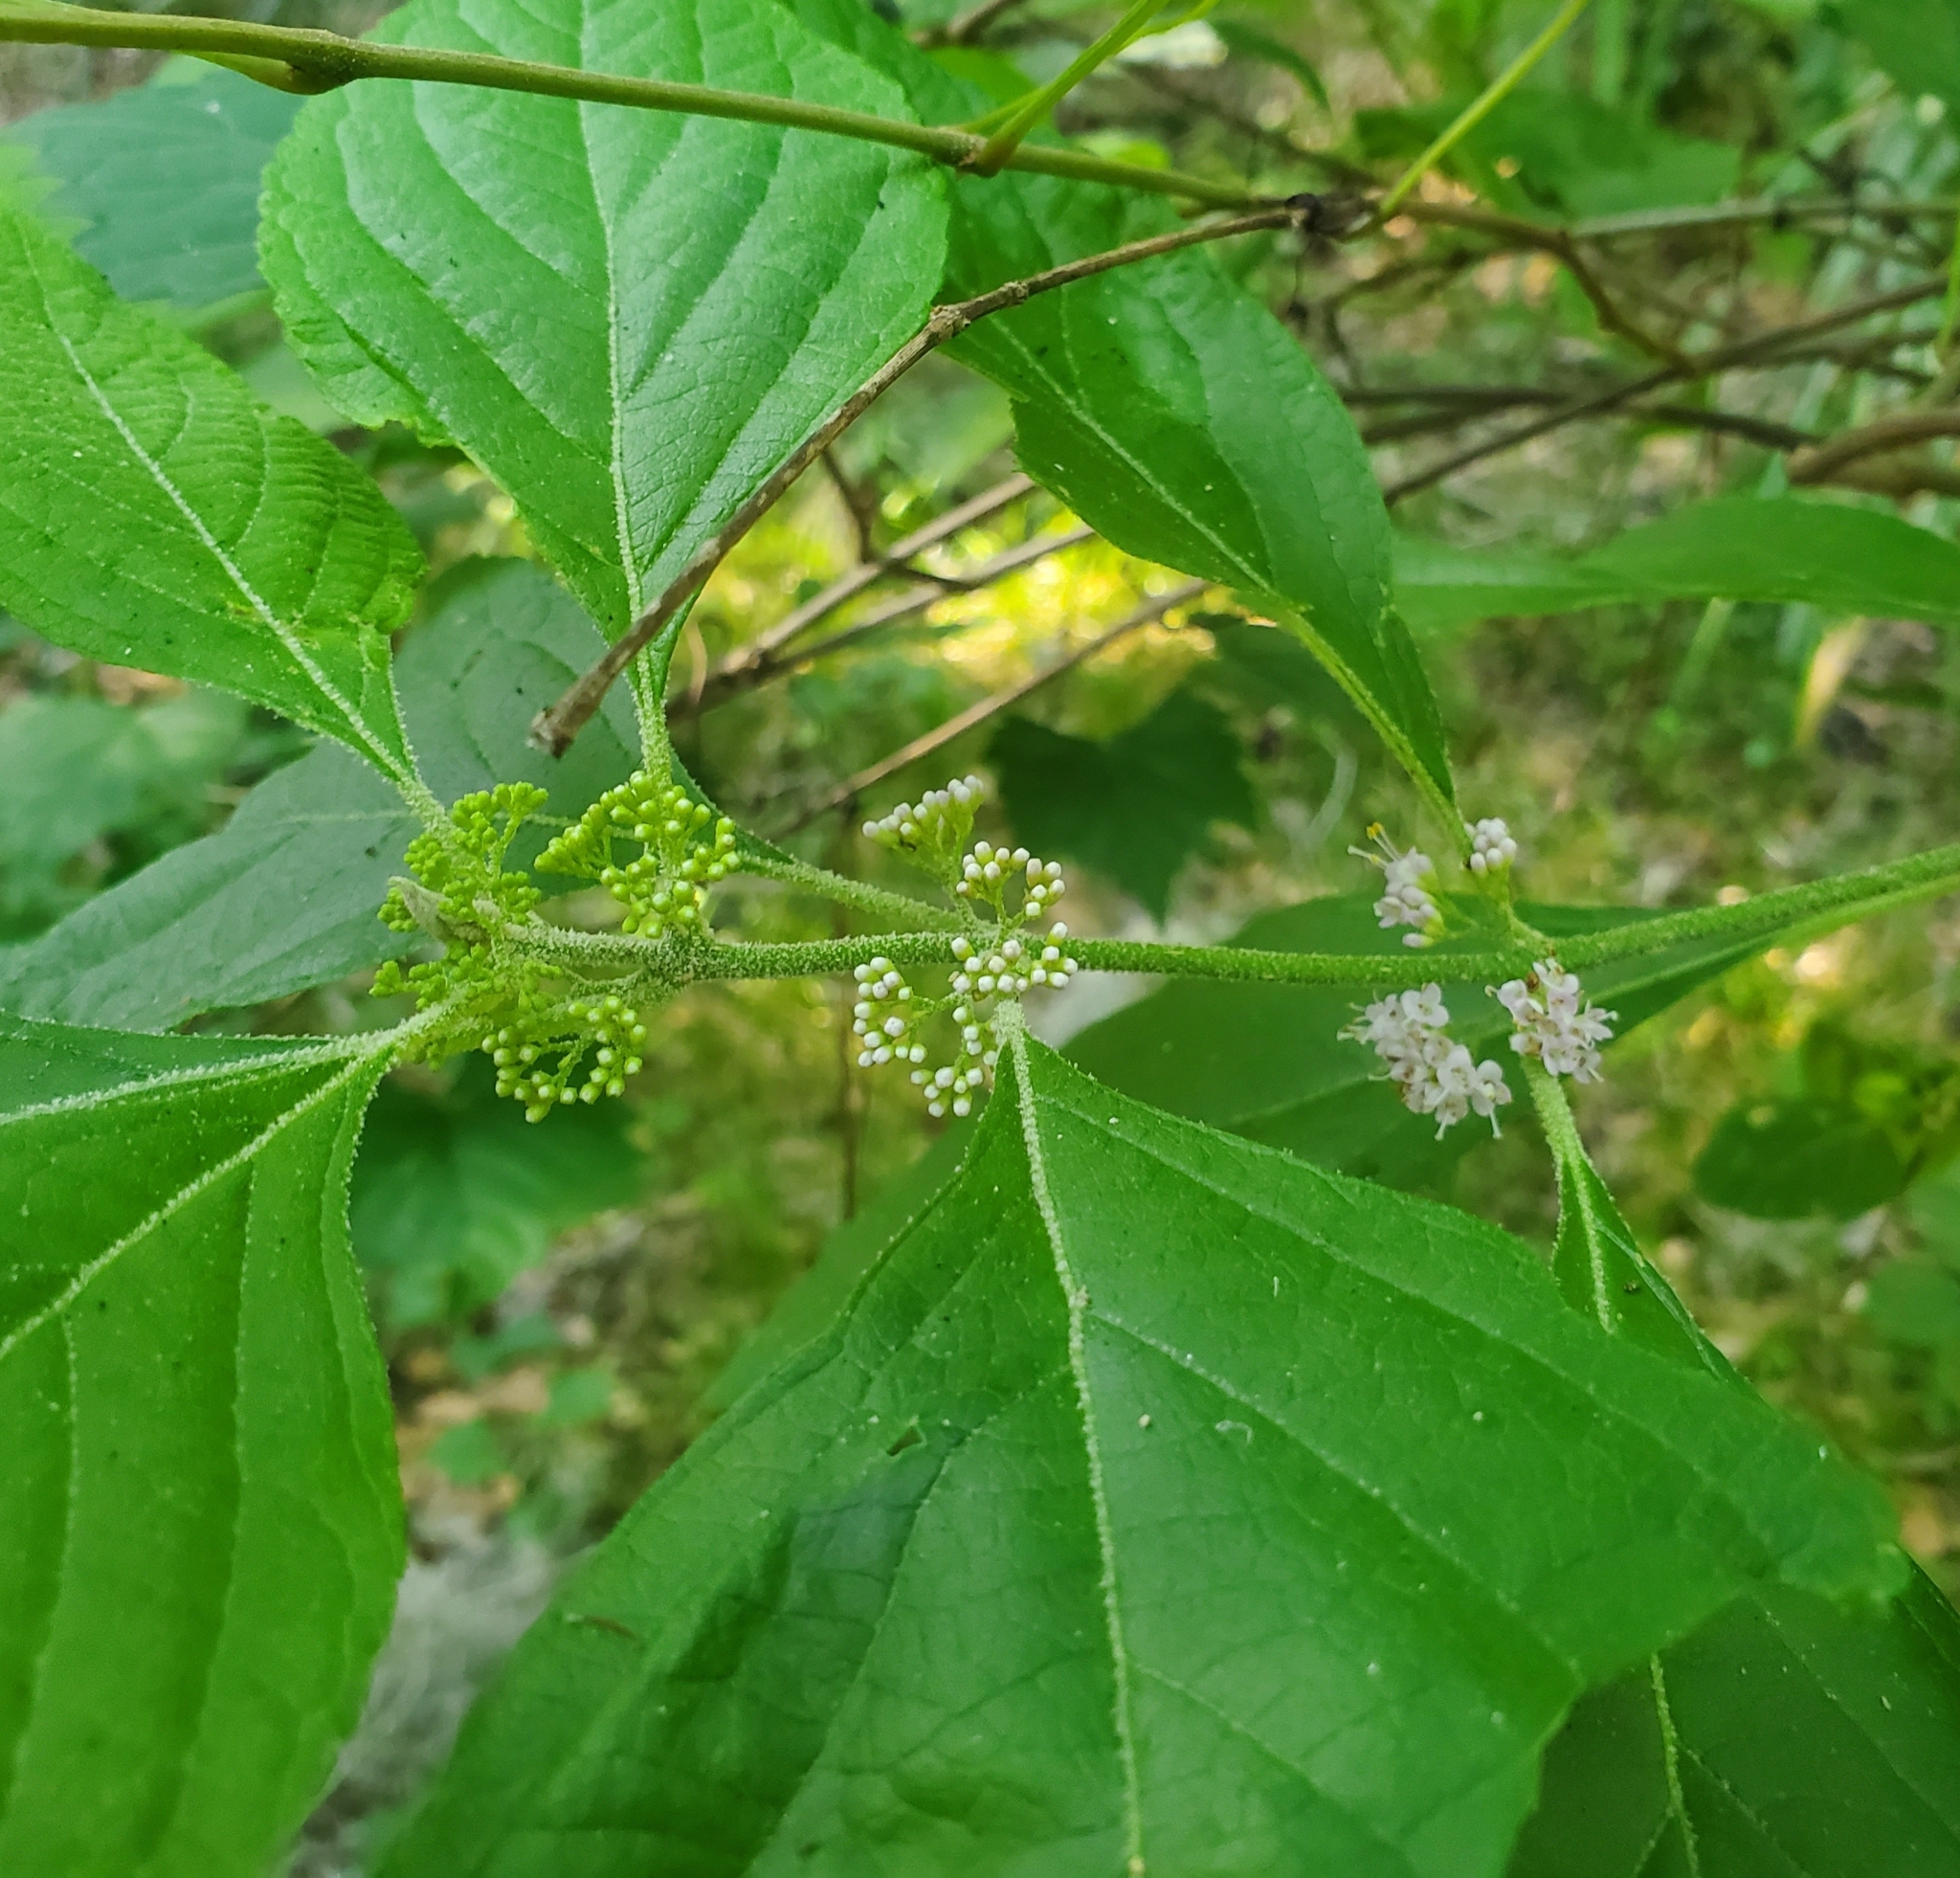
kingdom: Plantae
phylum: Tracheophyta
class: Magnoliopsida
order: Lamiales
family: Lamiaceae
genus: Callicarpa
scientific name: Callicarpa americana
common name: American beautyberry
